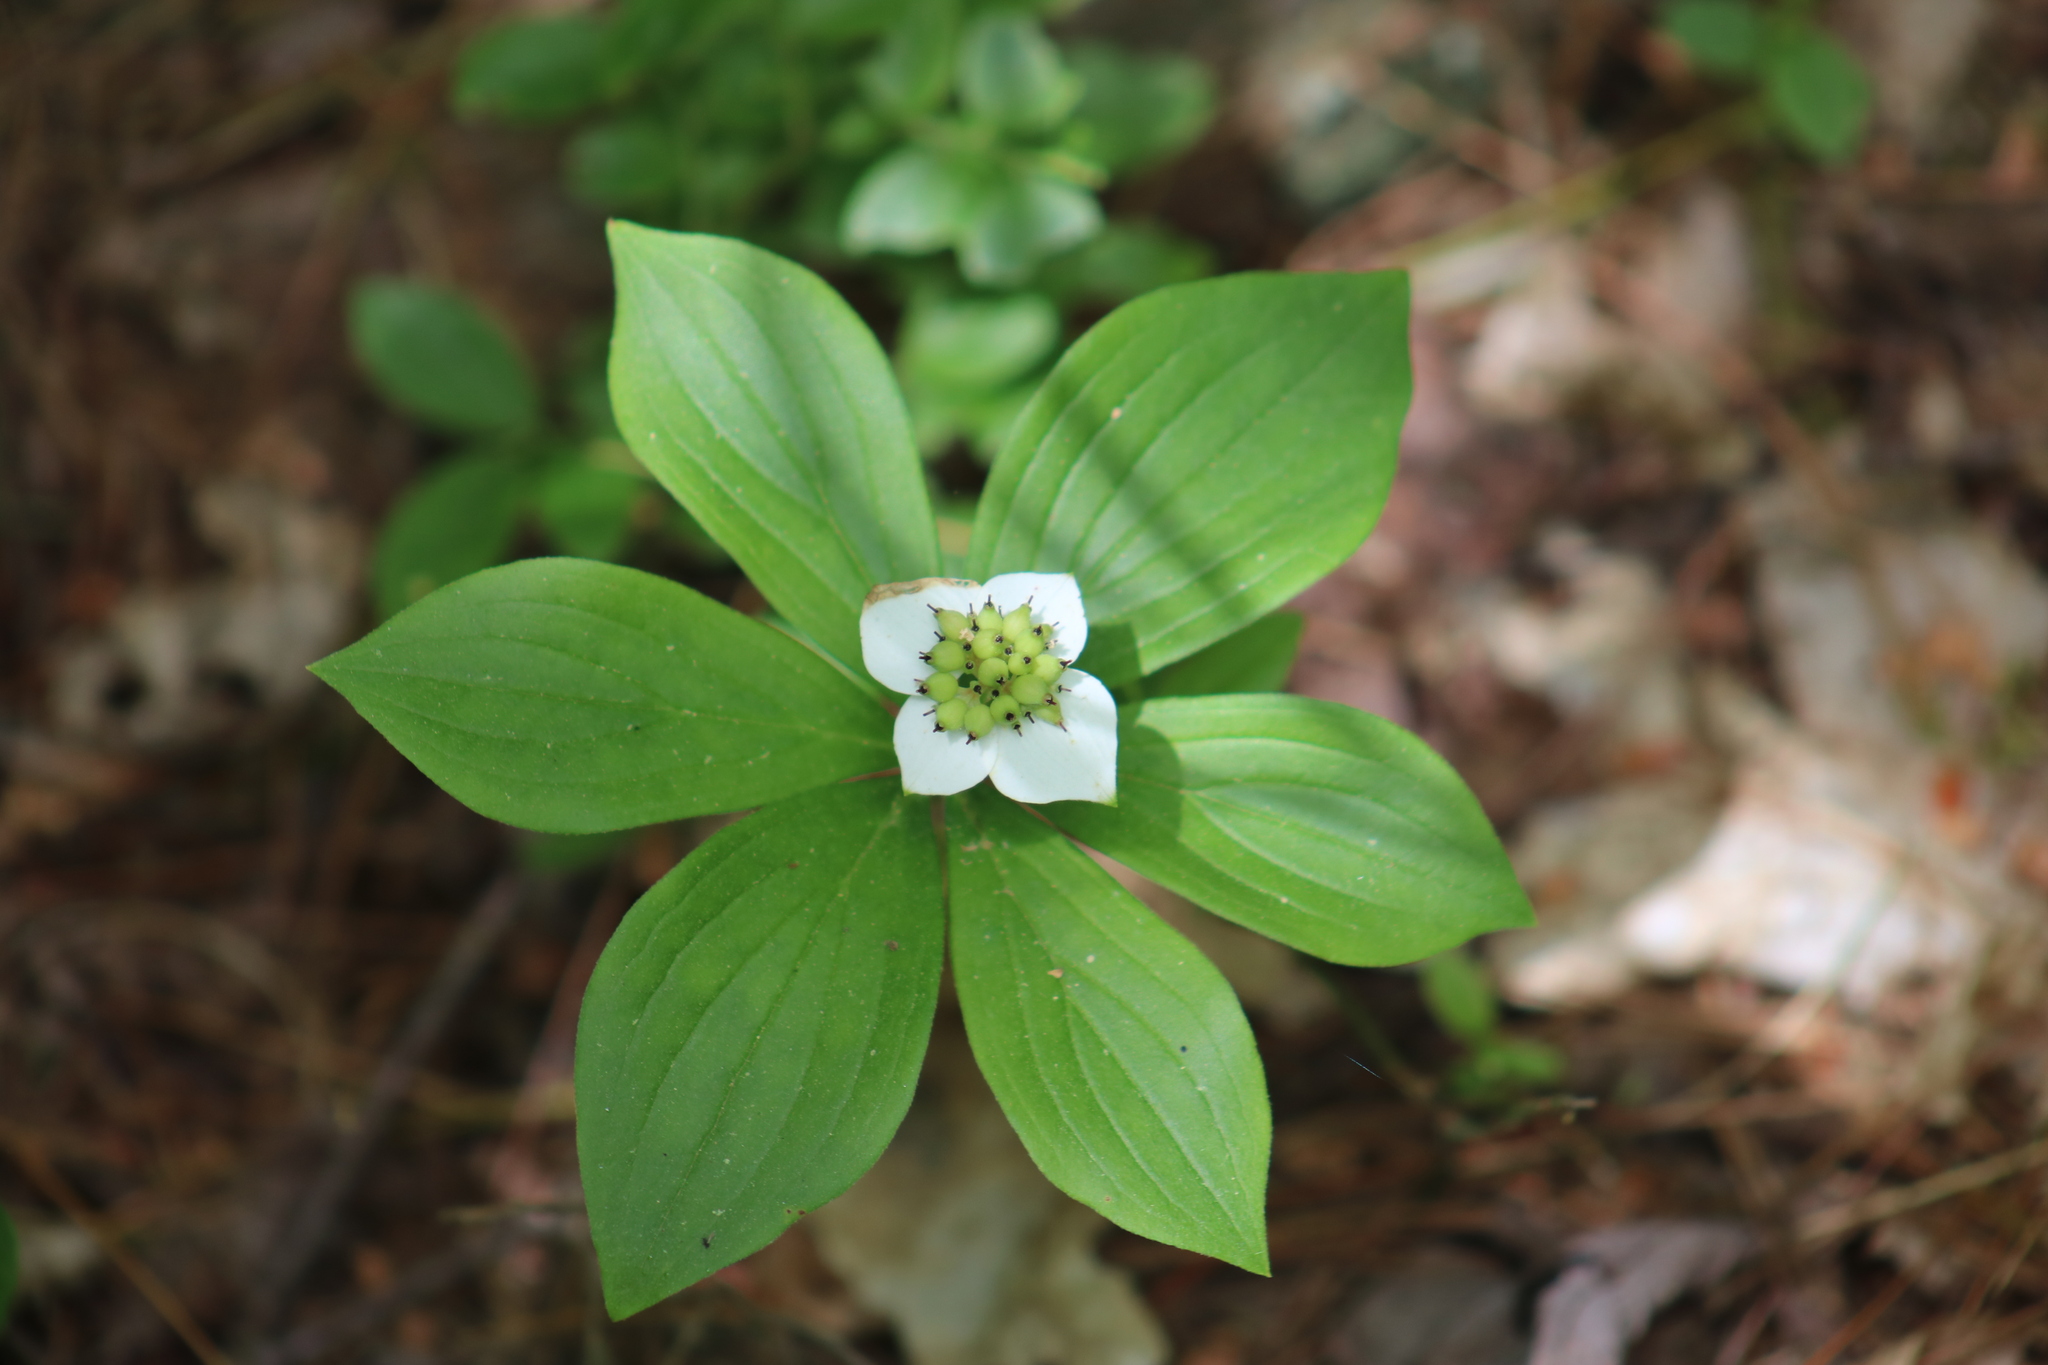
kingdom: Plantae
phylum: Tracheophyta
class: Magnoliopsida
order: Cornales
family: Cornaceae
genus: Cornus
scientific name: Cornus canadensis
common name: Creeping dogwood
